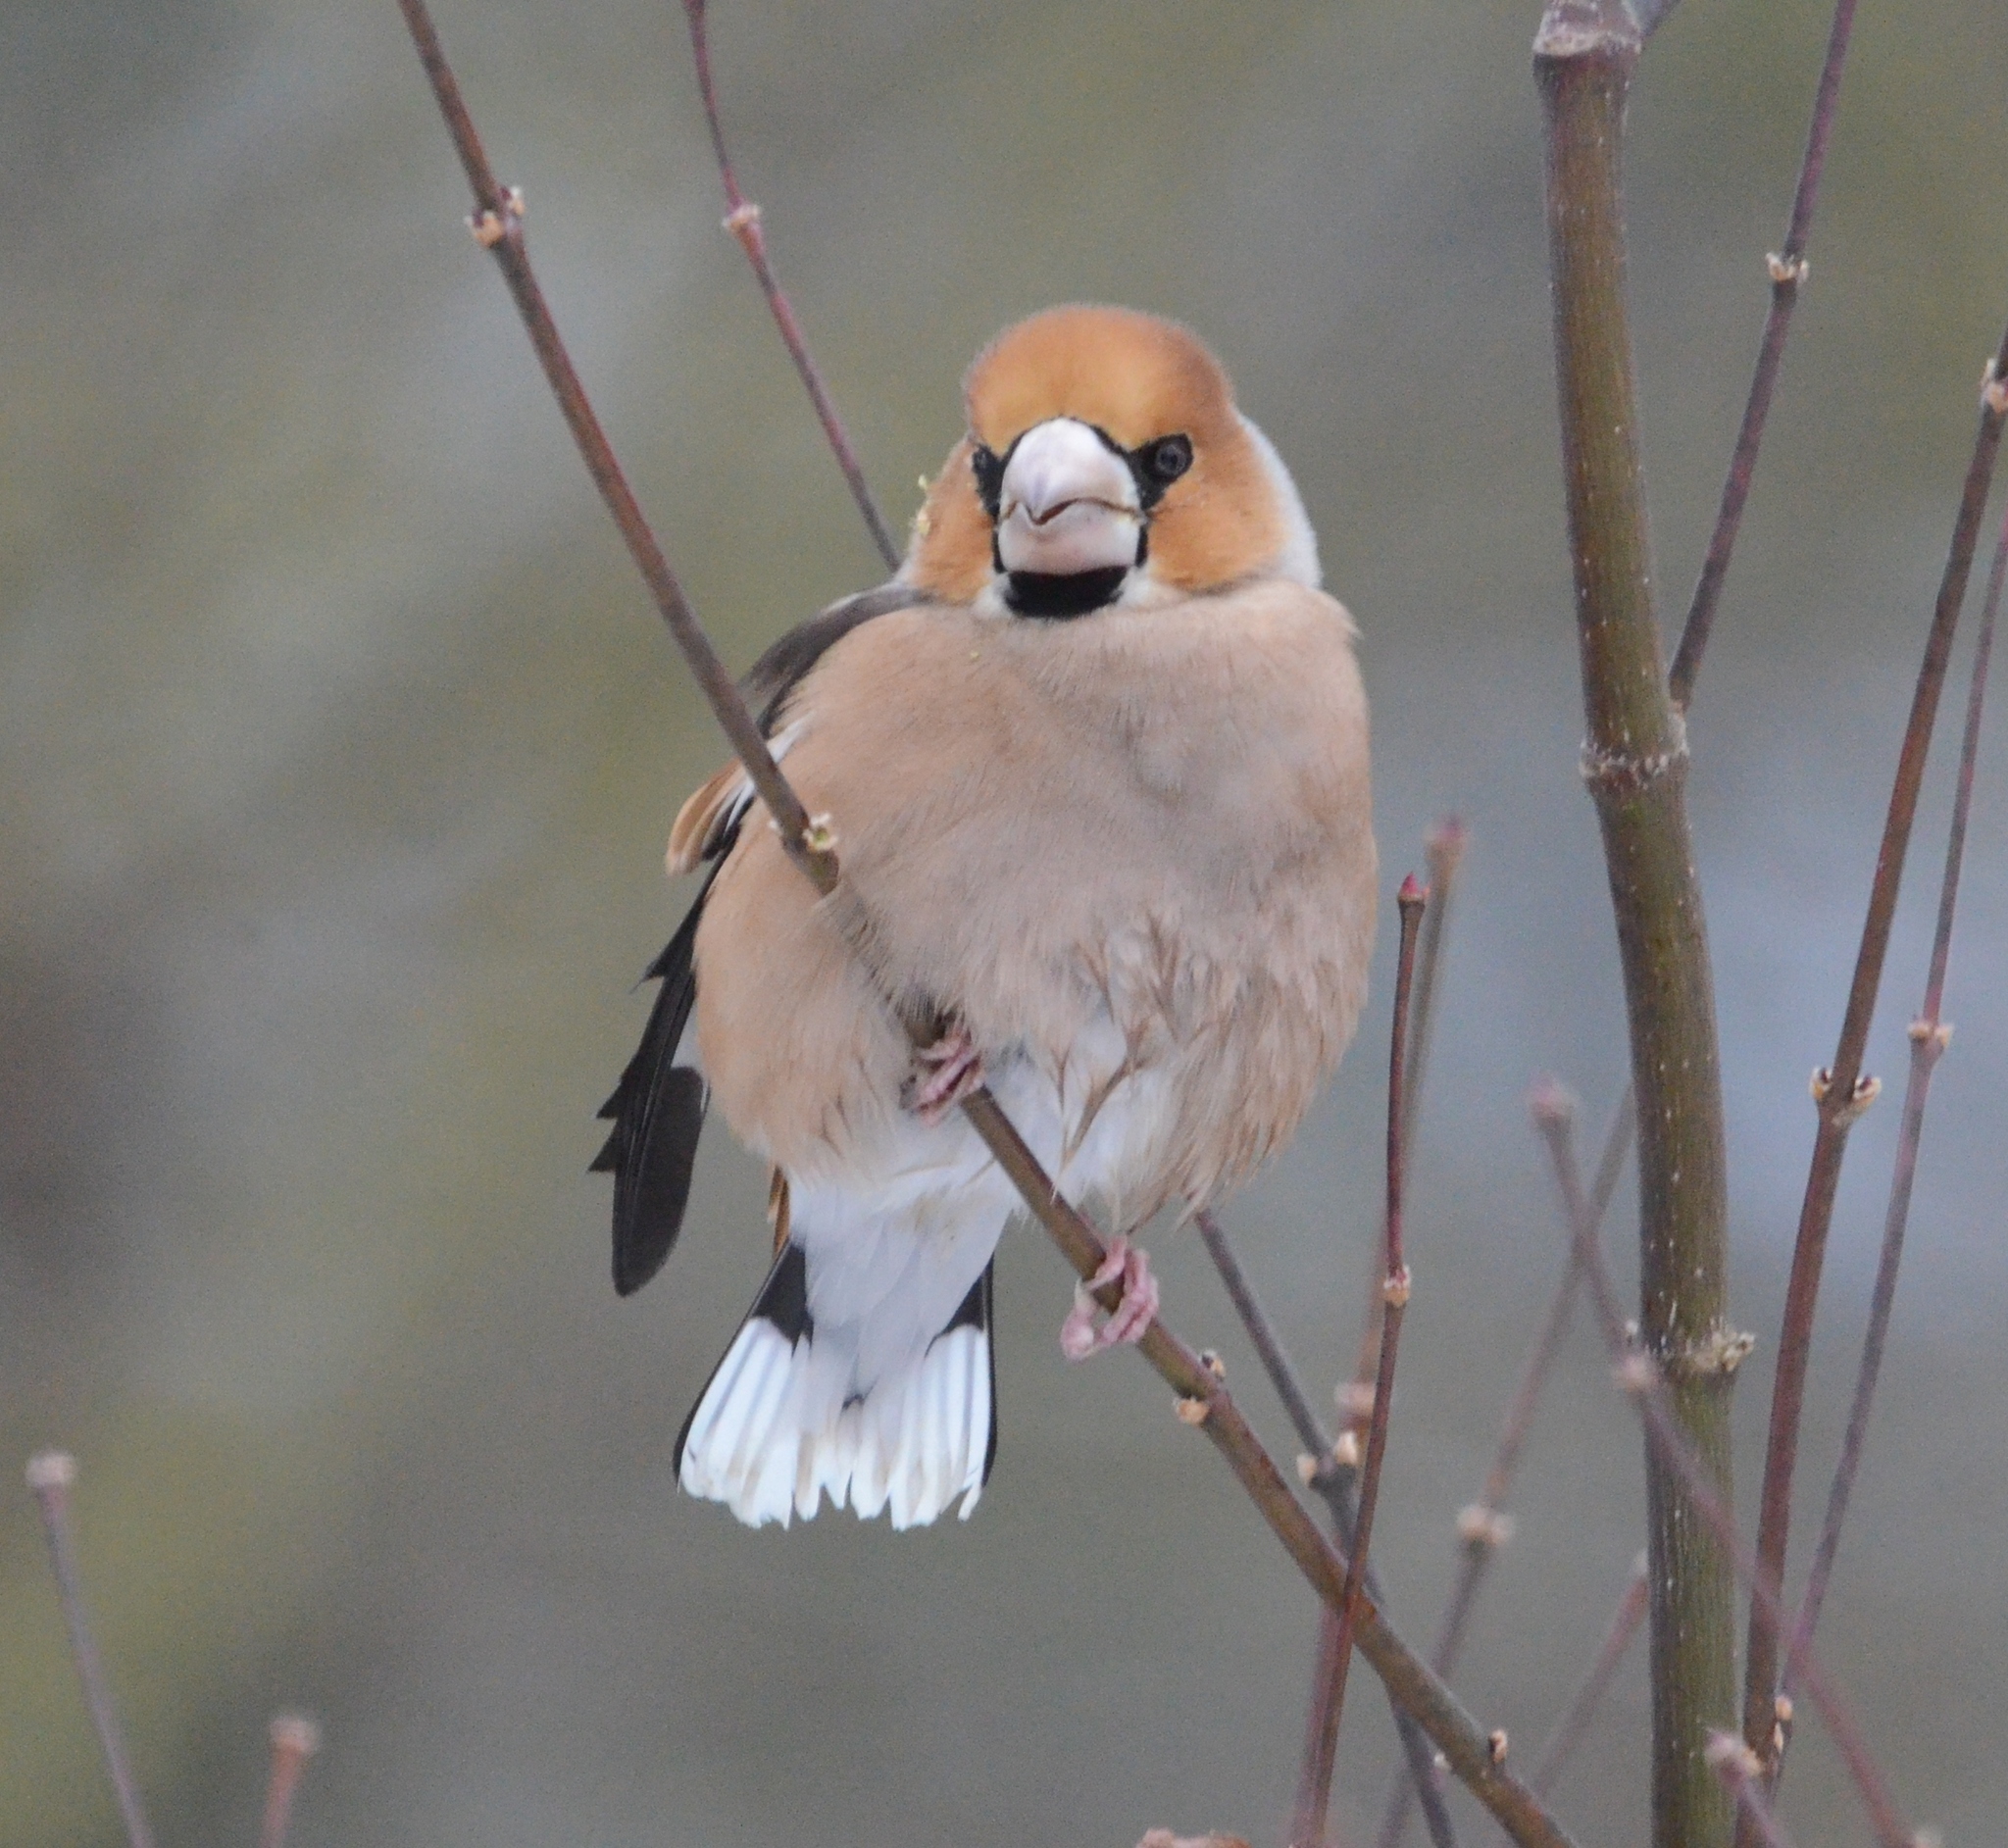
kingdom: Animalia
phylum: Chordata
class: Aves
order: Passeriformes
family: Fringillidae
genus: Coccothraustes
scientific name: Coccothraustes coccothraustes
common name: Hawfinch
